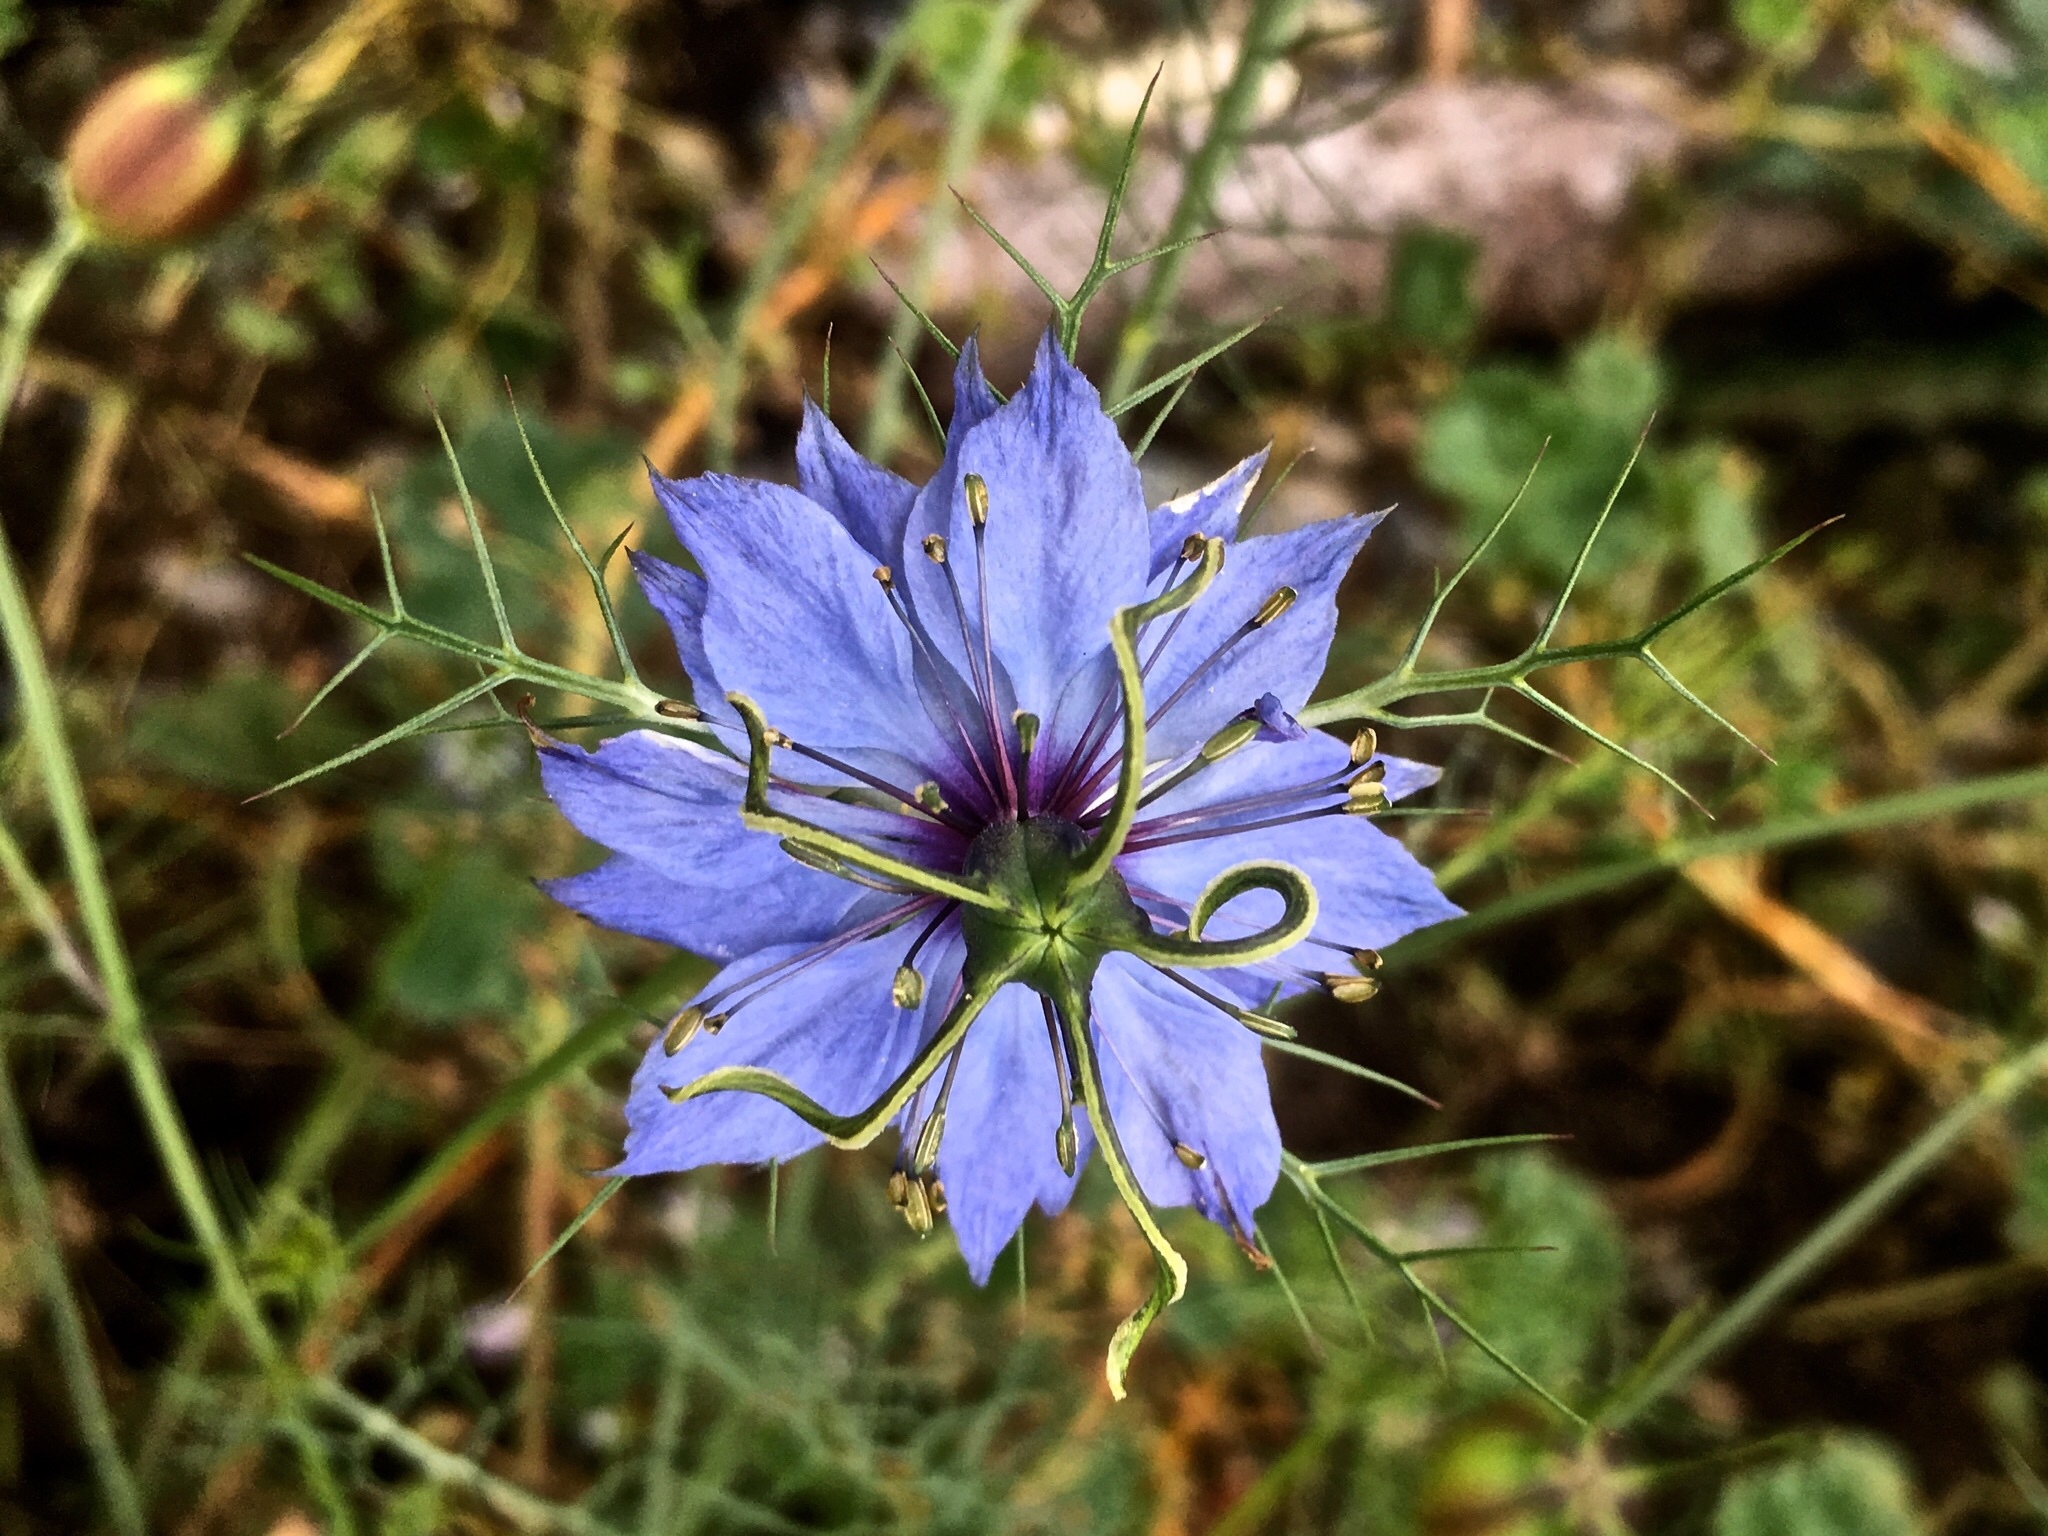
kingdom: Plantae
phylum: Tracheophyta
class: Magnoliopsida
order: Ranunculales
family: Ranunculaceae
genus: Nigella
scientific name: Nigella damascena
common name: Love-in-a-mist
